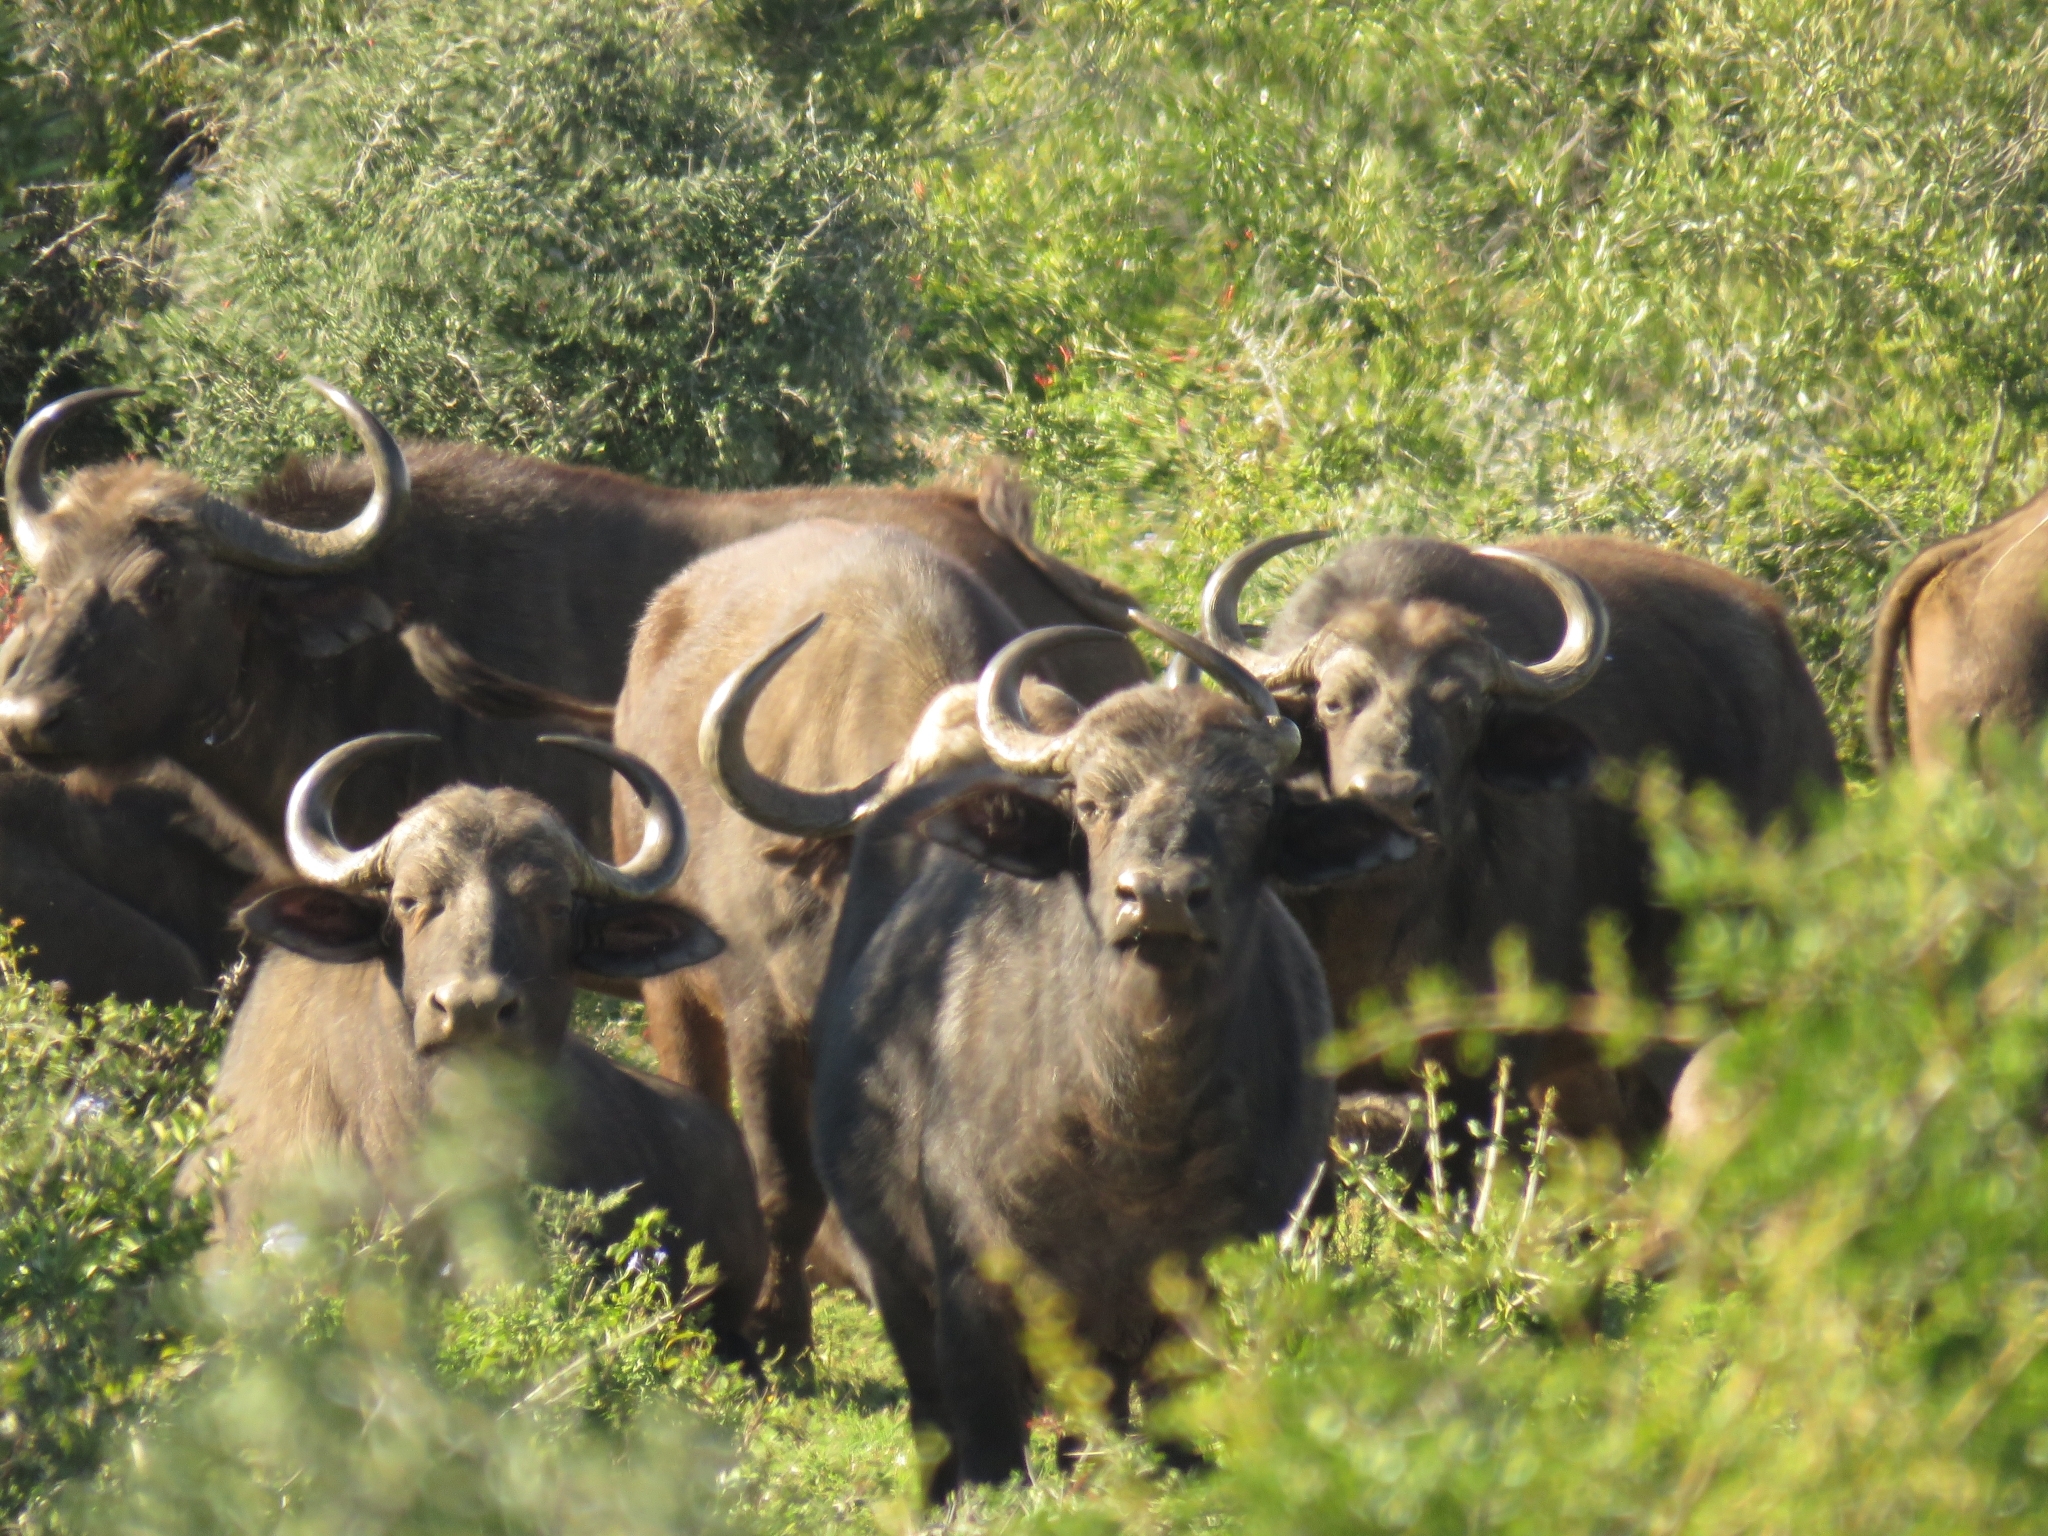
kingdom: Animalia
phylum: Chordata
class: Mammalia
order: Artiodactyla
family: Bovidae
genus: Syncerus
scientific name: Syncerus caffer
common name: African buffalo
